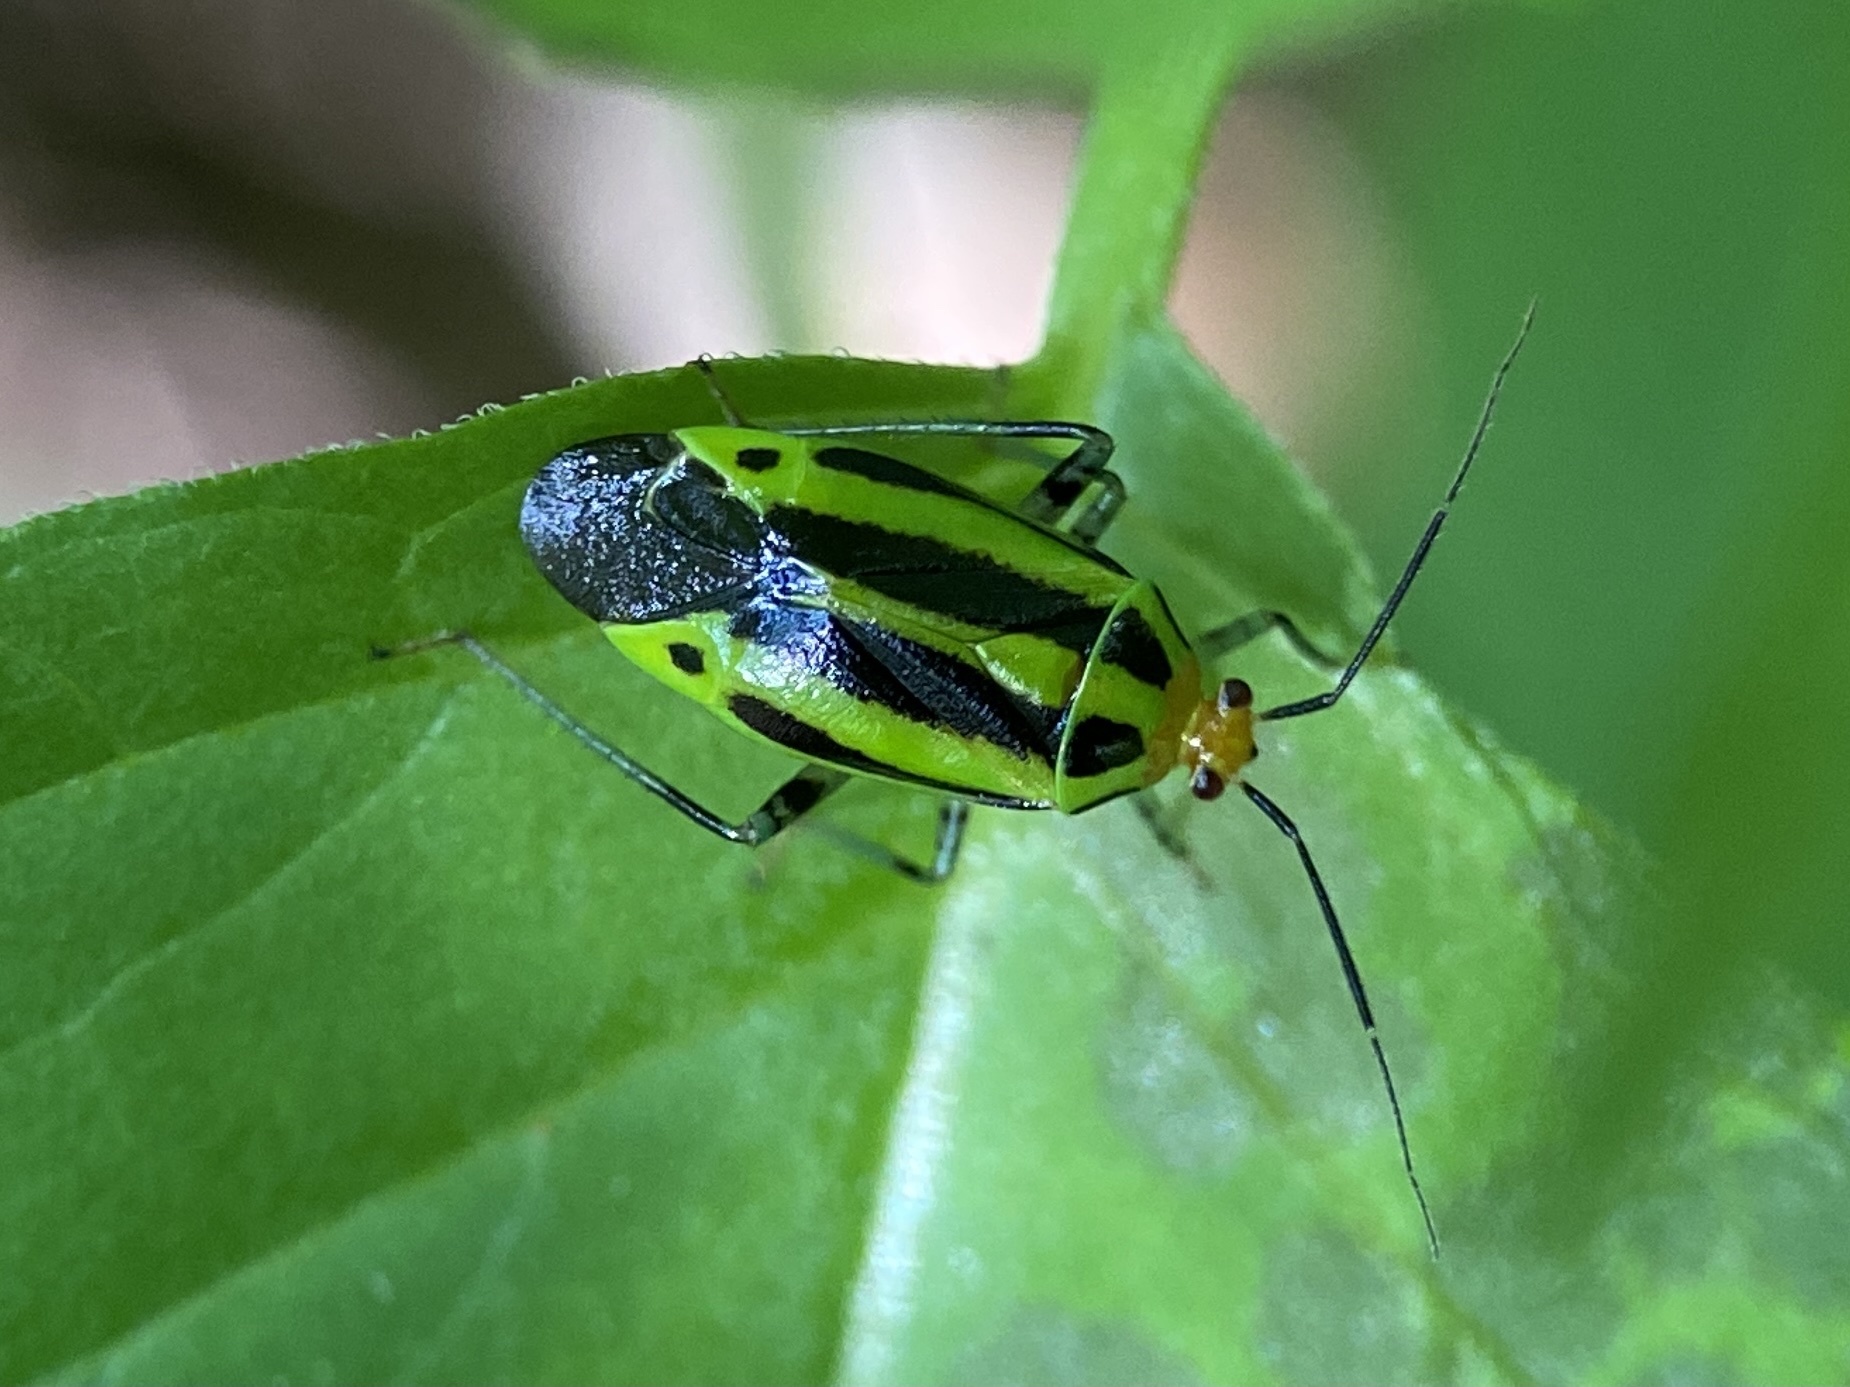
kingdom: Animalia
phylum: Arthropoda
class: Insecta
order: Hemiptera
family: Miridae
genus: Poecilocapsus
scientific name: Poecilocapsus lineatus
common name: Four-lined plant bug
